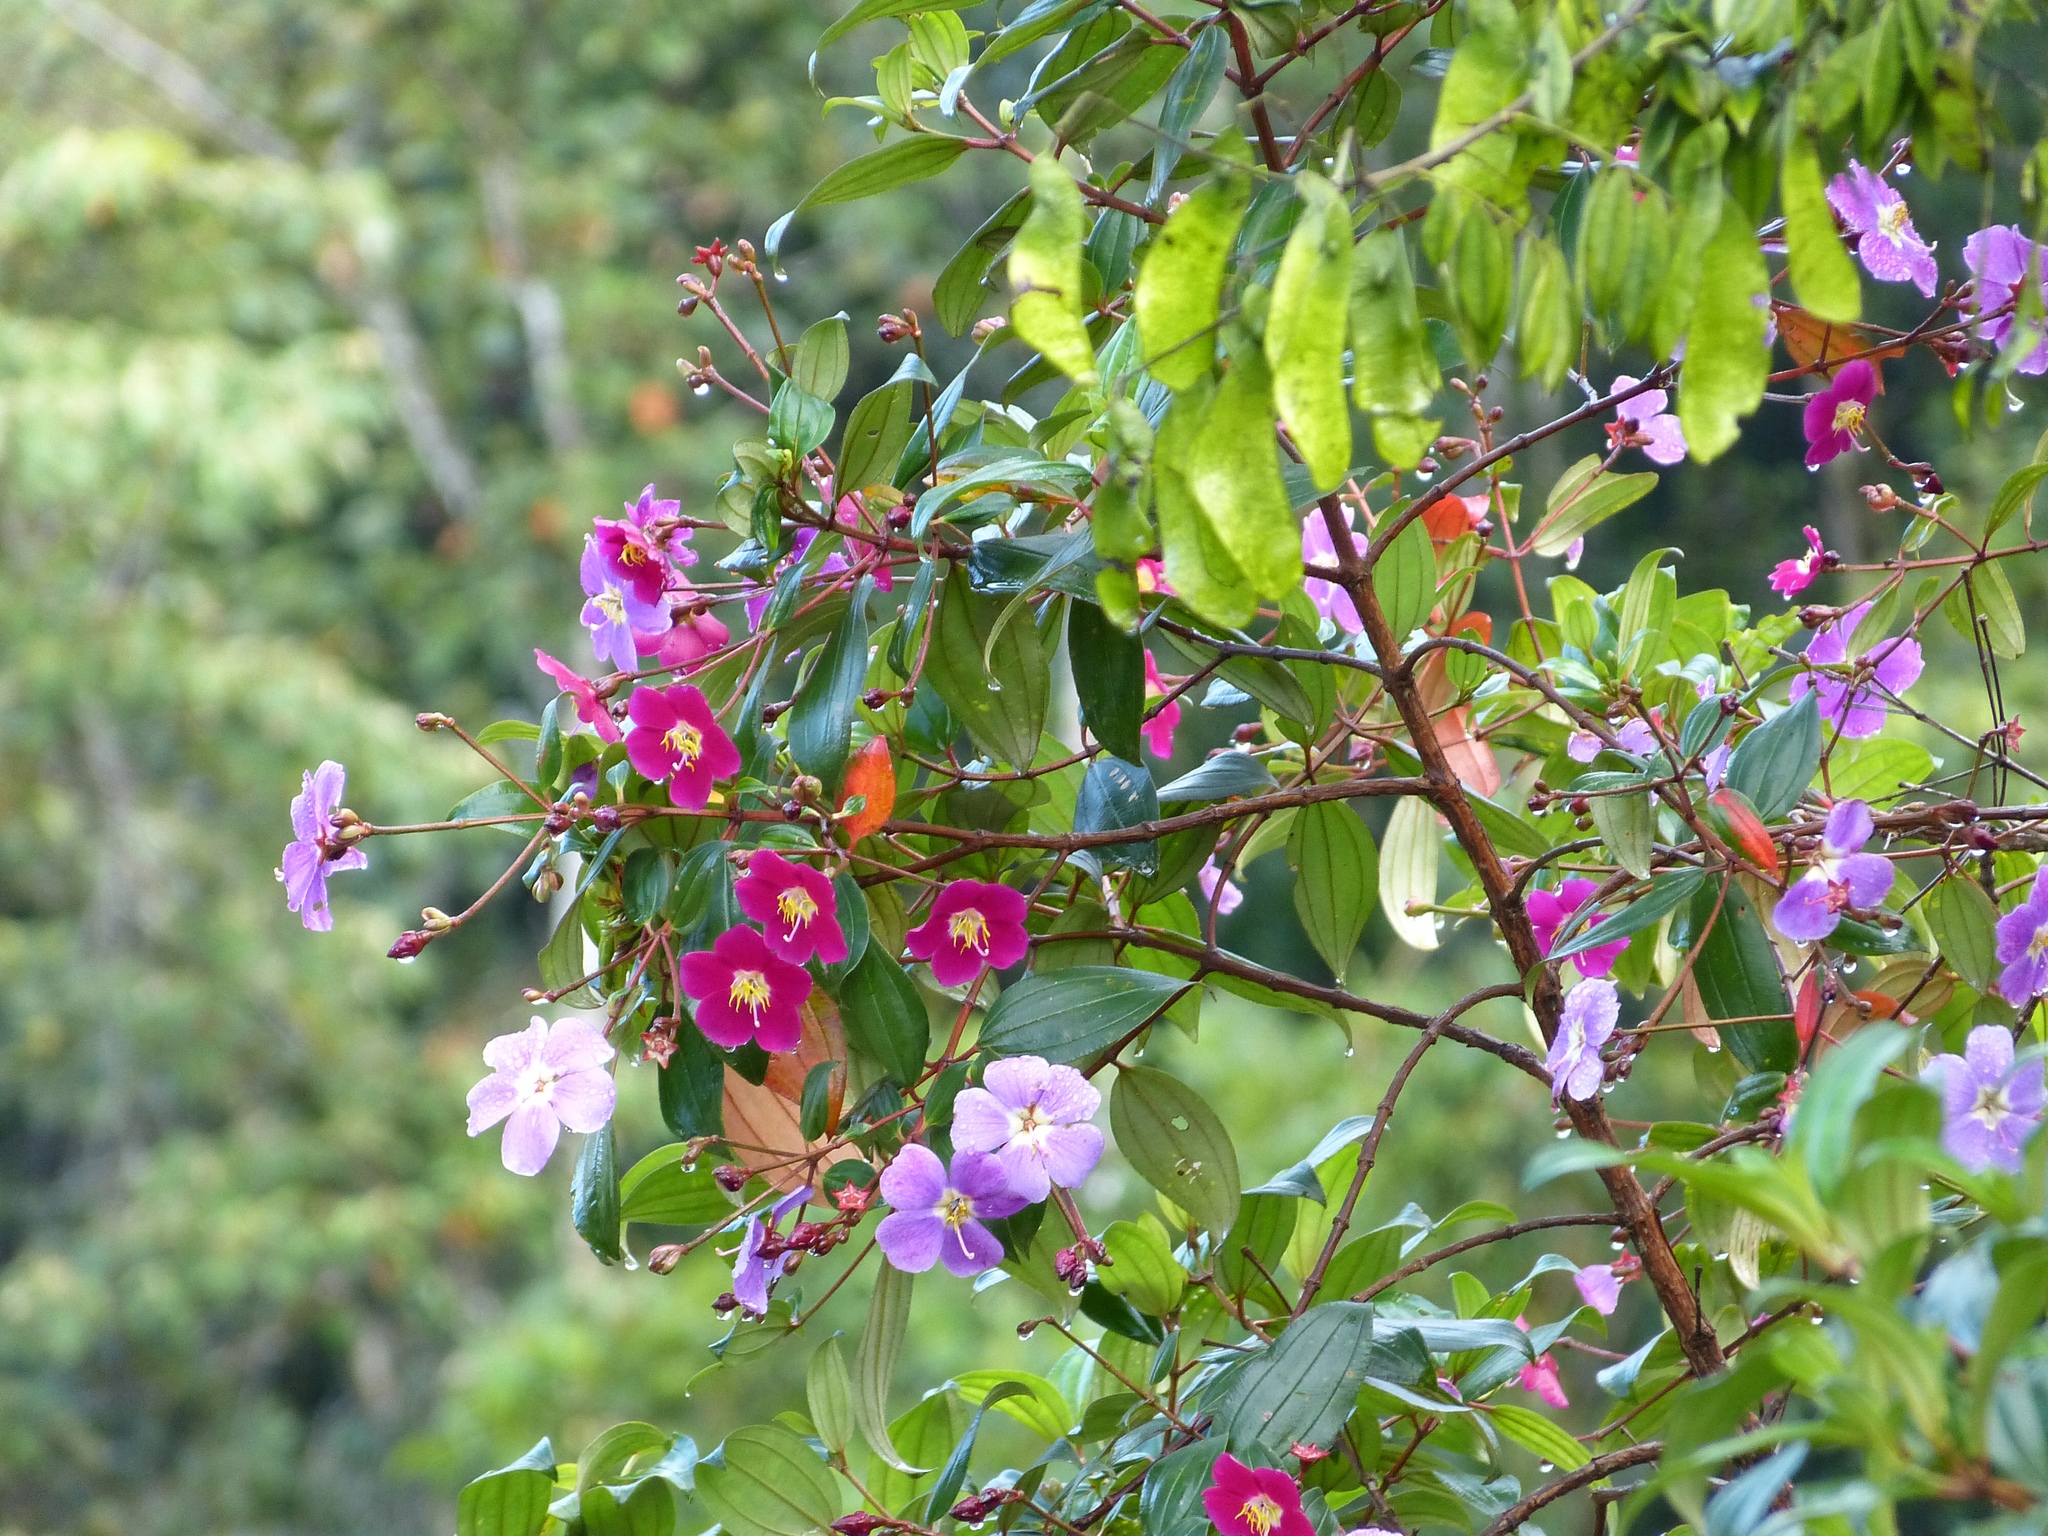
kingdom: Plantae
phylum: Tracheophyta
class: Magnoliopsida
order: Myrtales
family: Melastomataceae
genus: Andesanthus
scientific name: Andesanthus lepidotus
